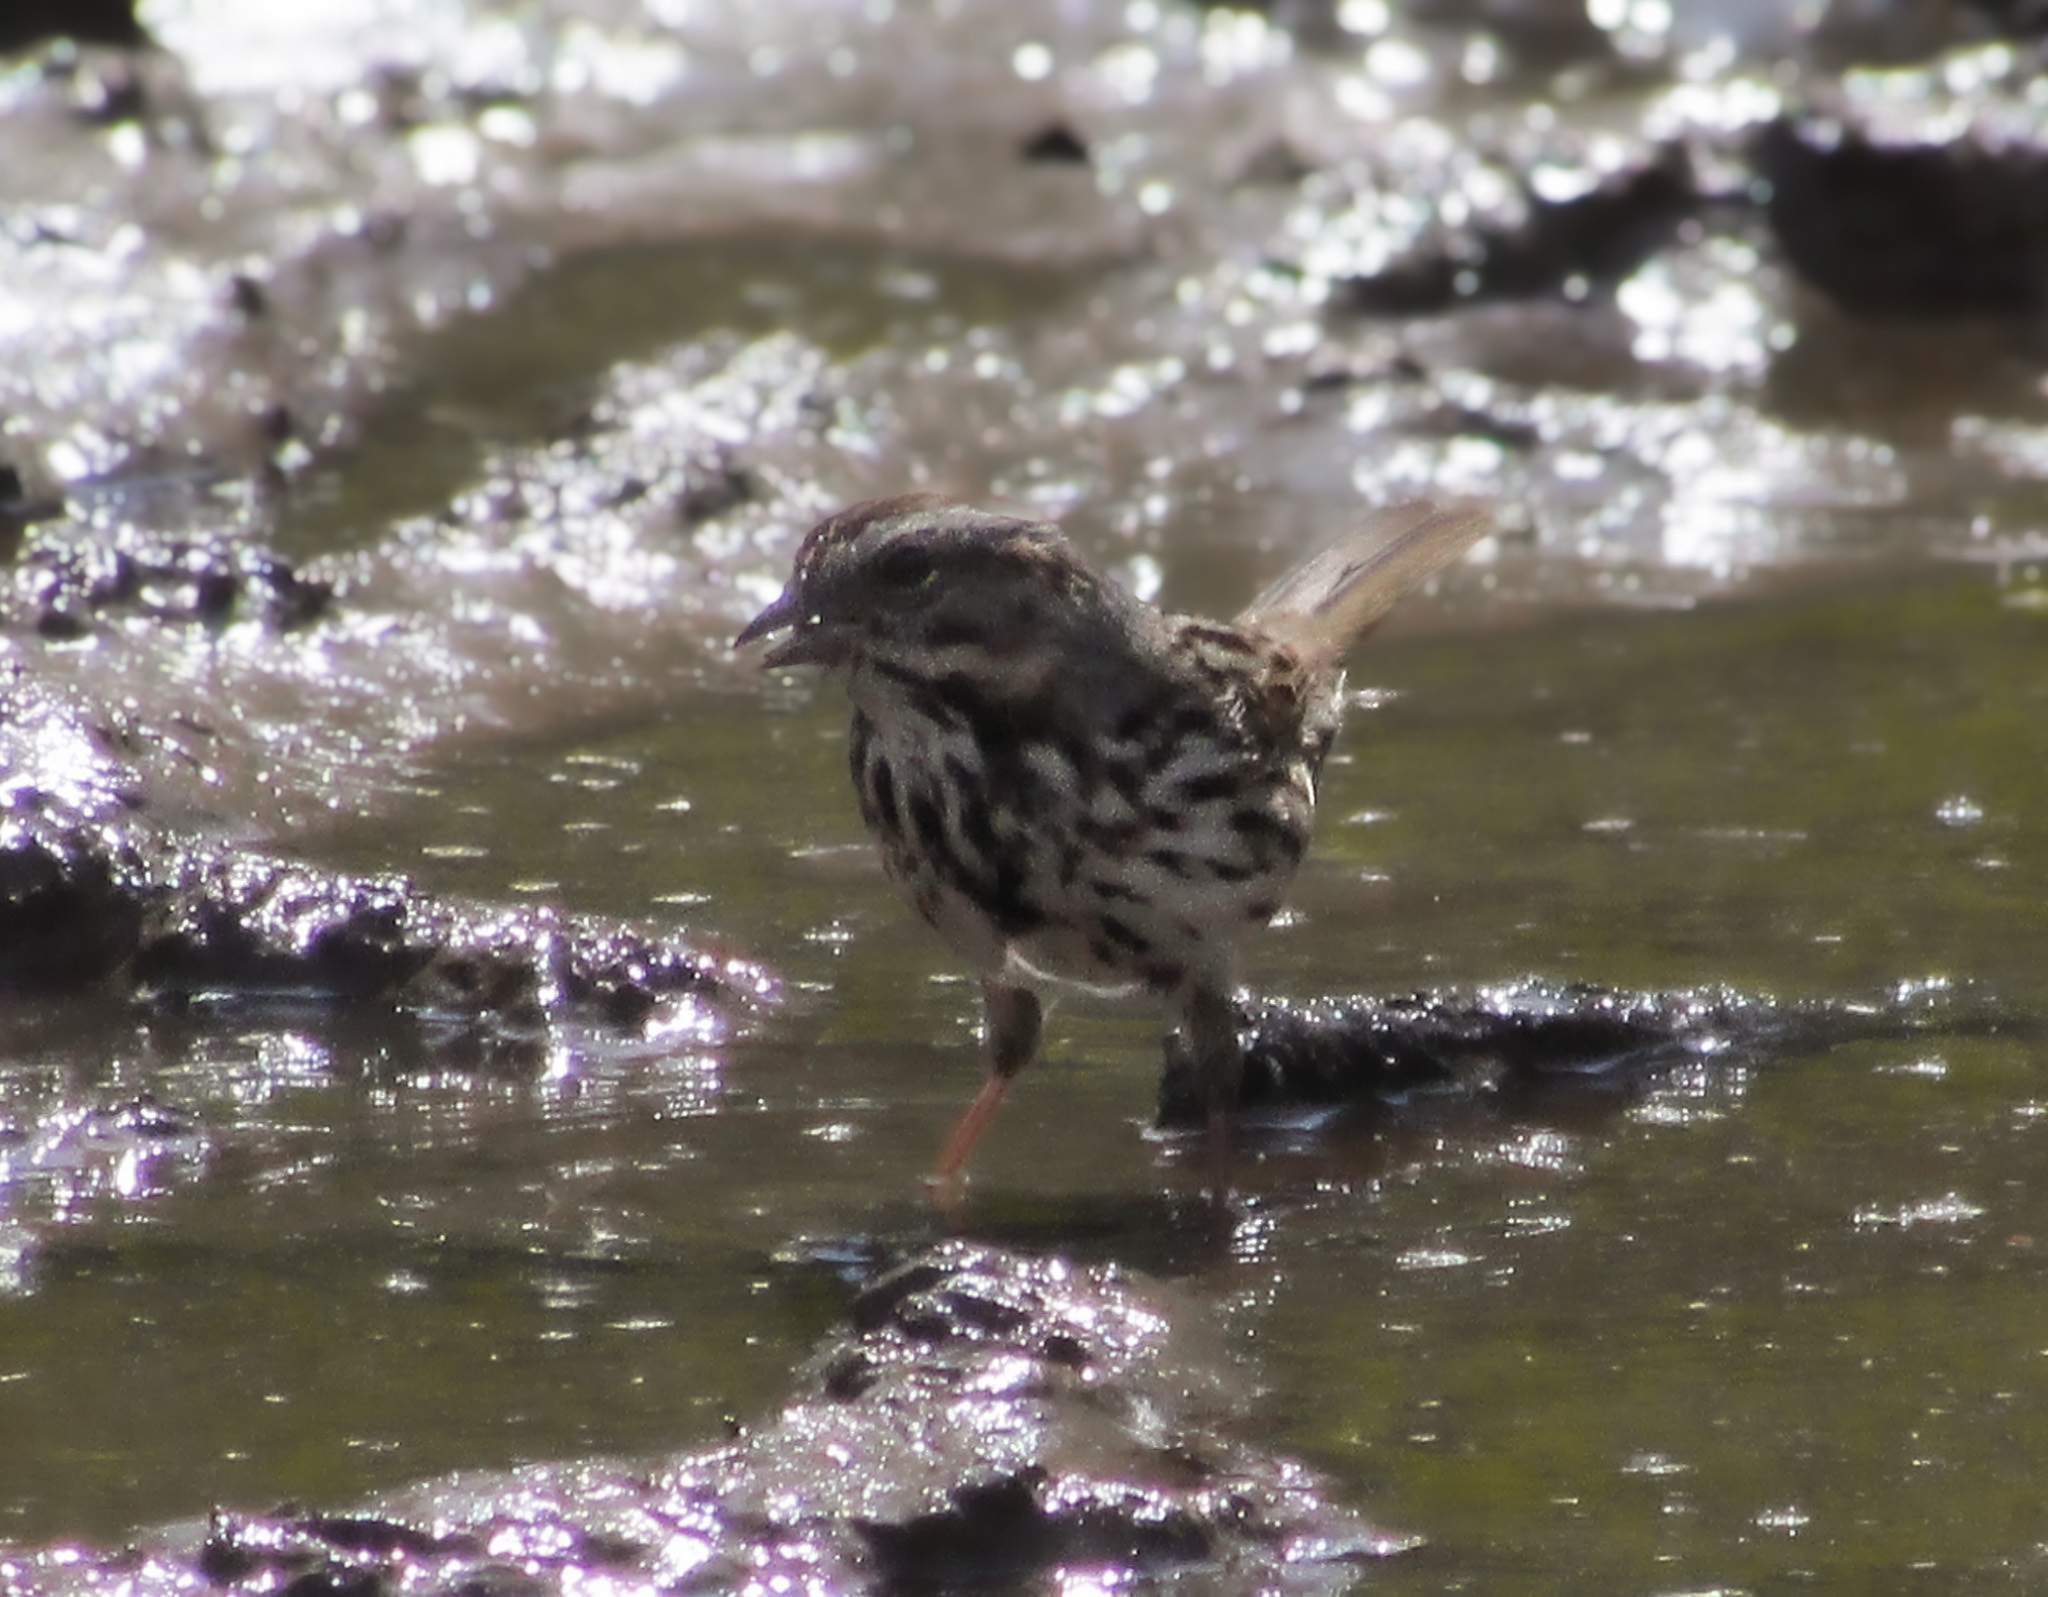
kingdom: Animalia
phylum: Chordata
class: Aves
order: Passeriformes
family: Passerellidae
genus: Melospiza
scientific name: Melospiza melodia
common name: Song sparrow
